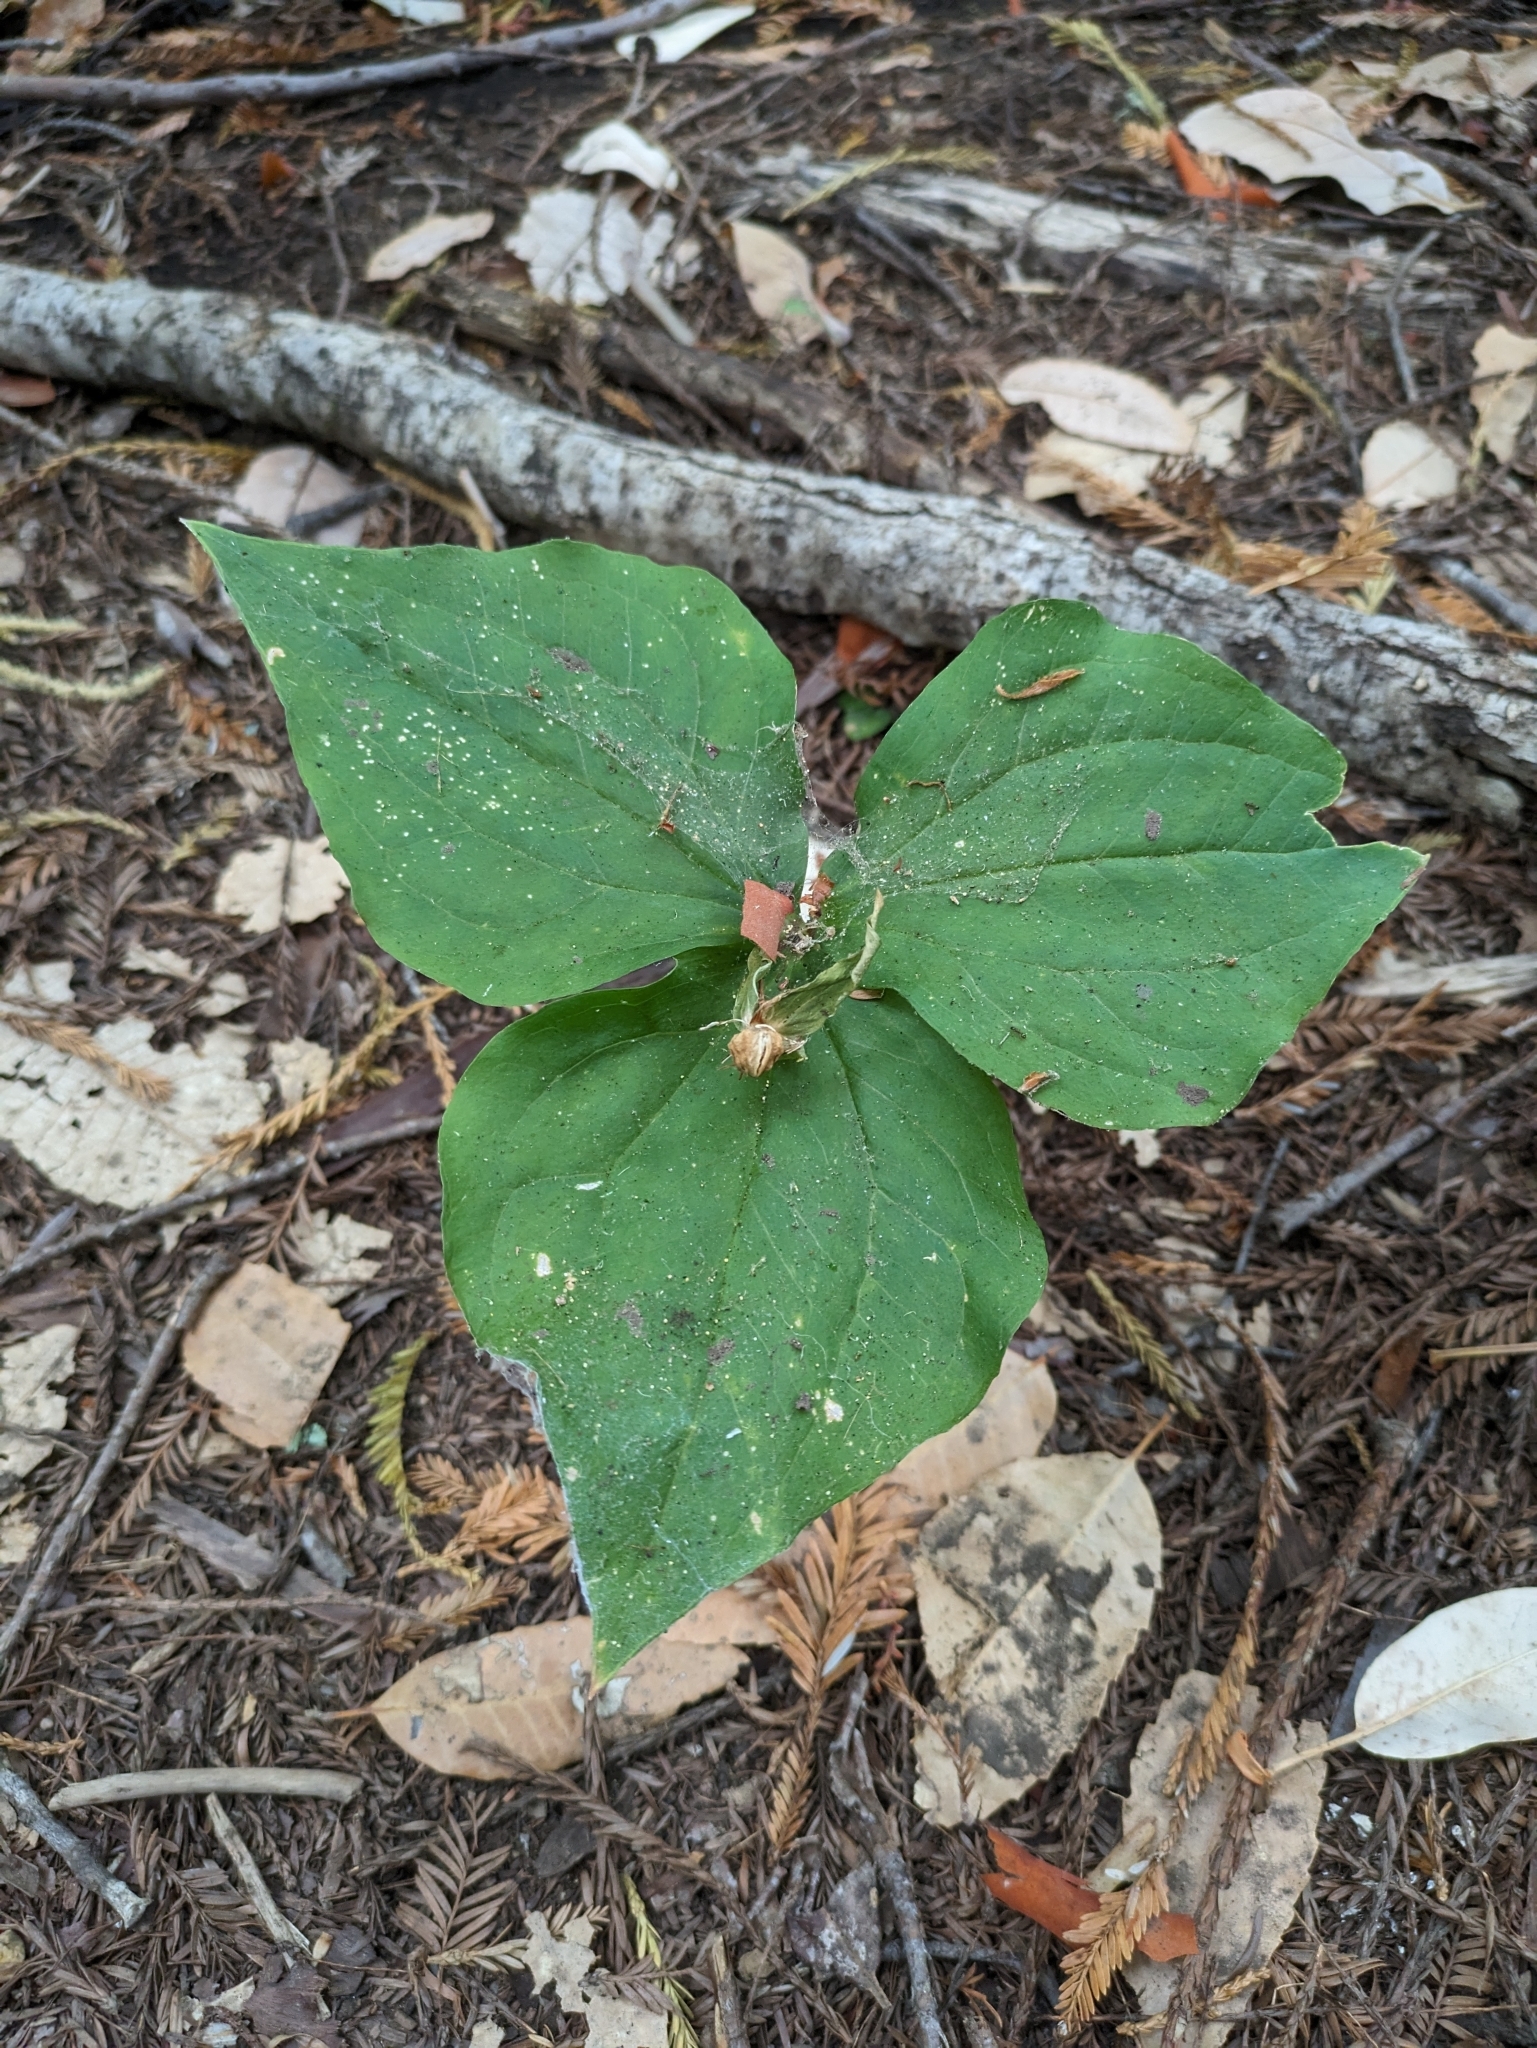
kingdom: Plantae
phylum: Tracheophyta
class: Liliopsida
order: Liliales
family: Melanthiaceae
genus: Trillium
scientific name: Trillium ovatum
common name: Pacific trillium
